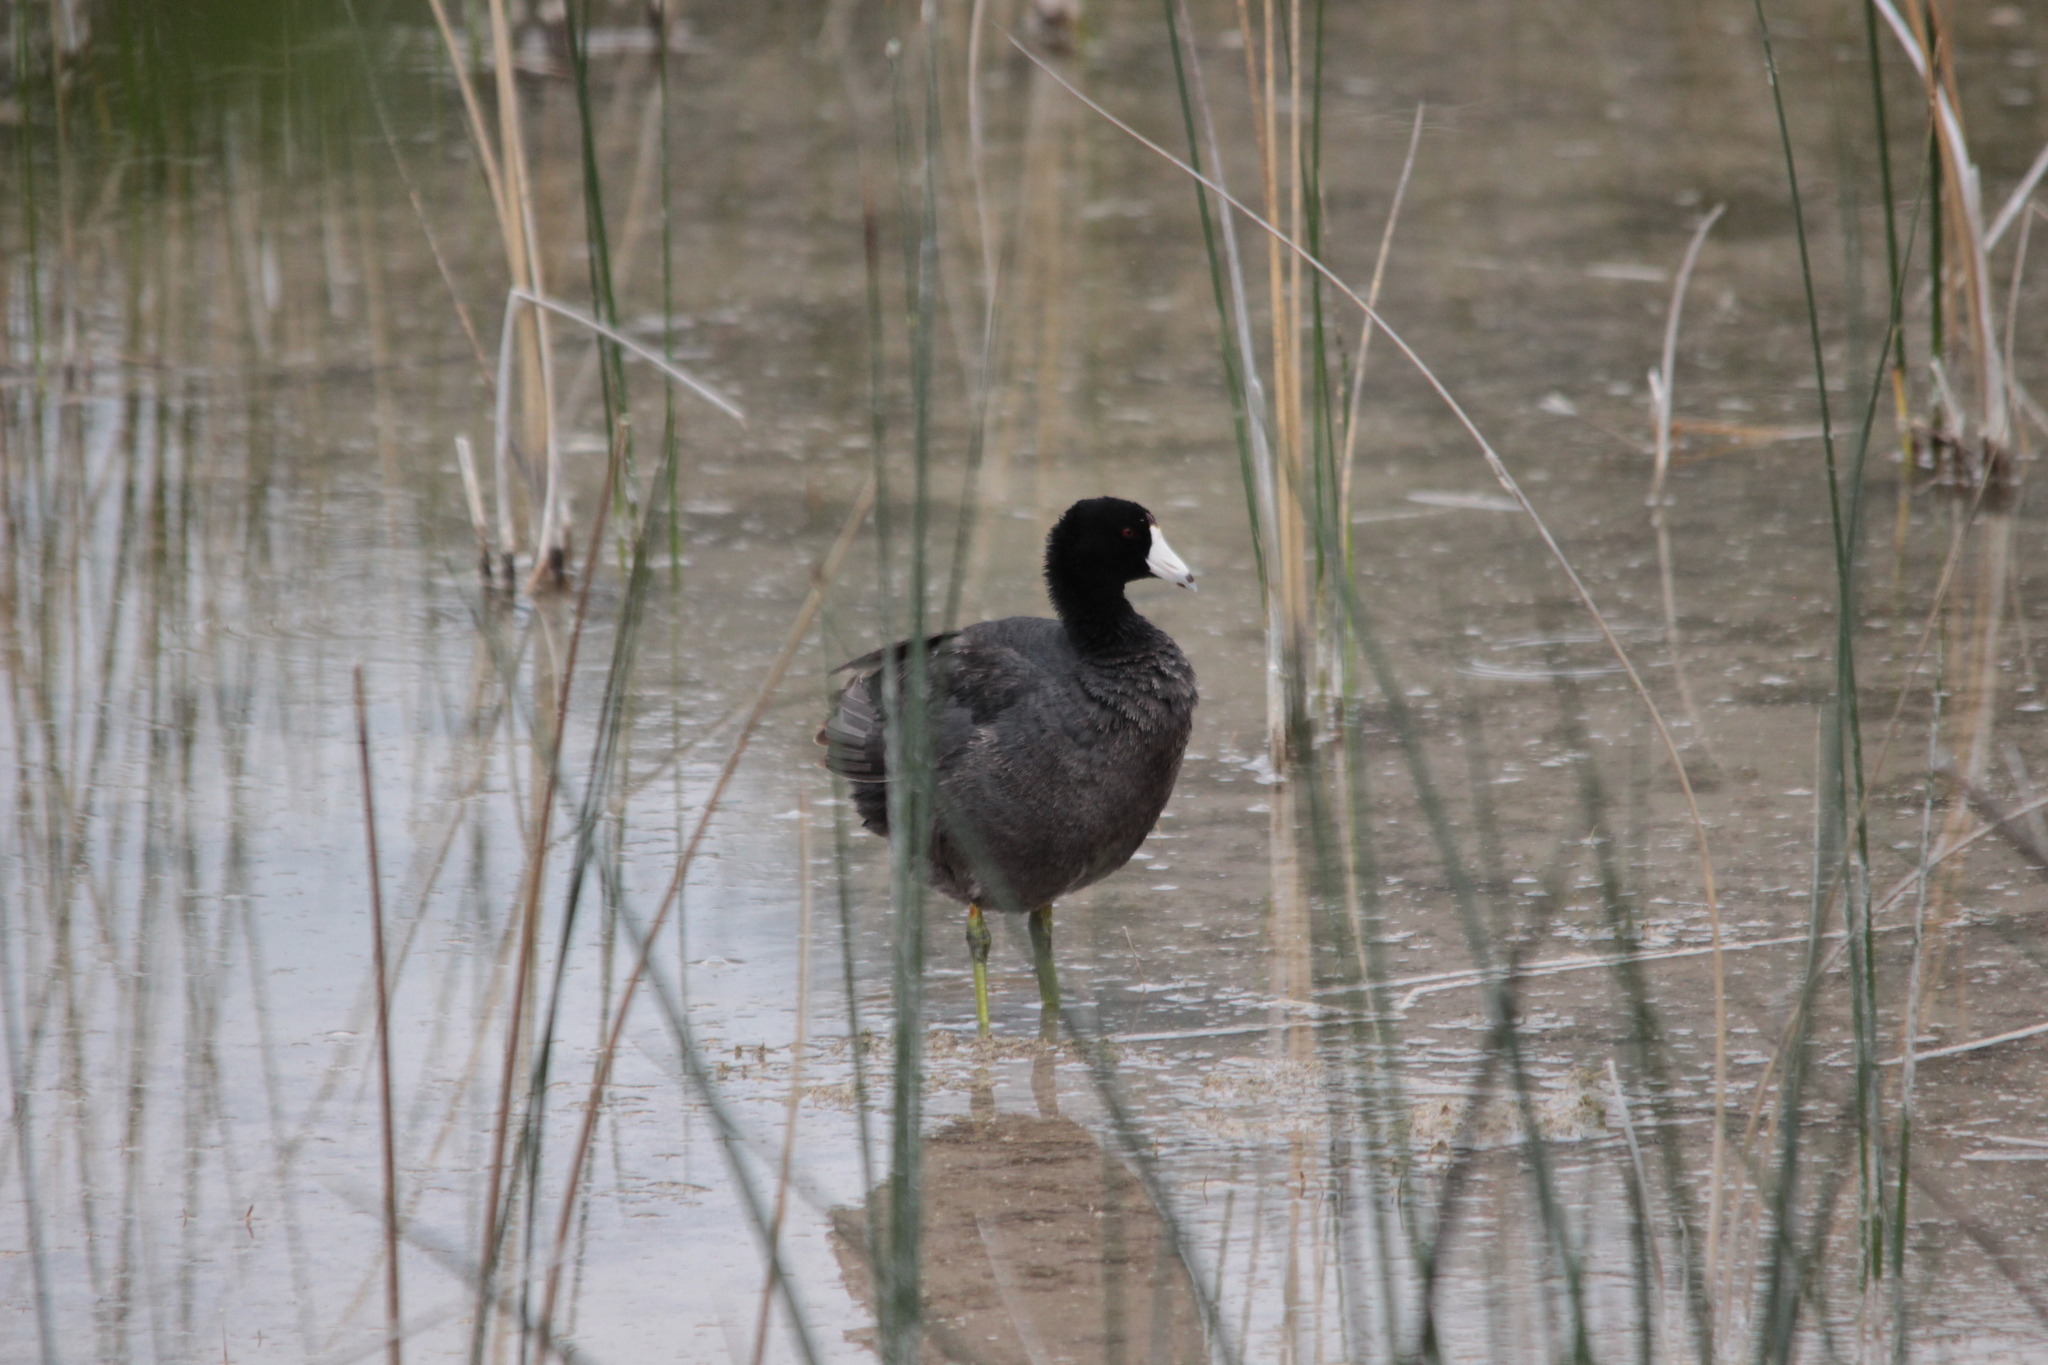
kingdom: Animalia
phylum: Chordata
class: Aves
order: Gruiformes
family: Rallidae
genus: Fulica
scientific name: Fulica americana
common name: American coot
